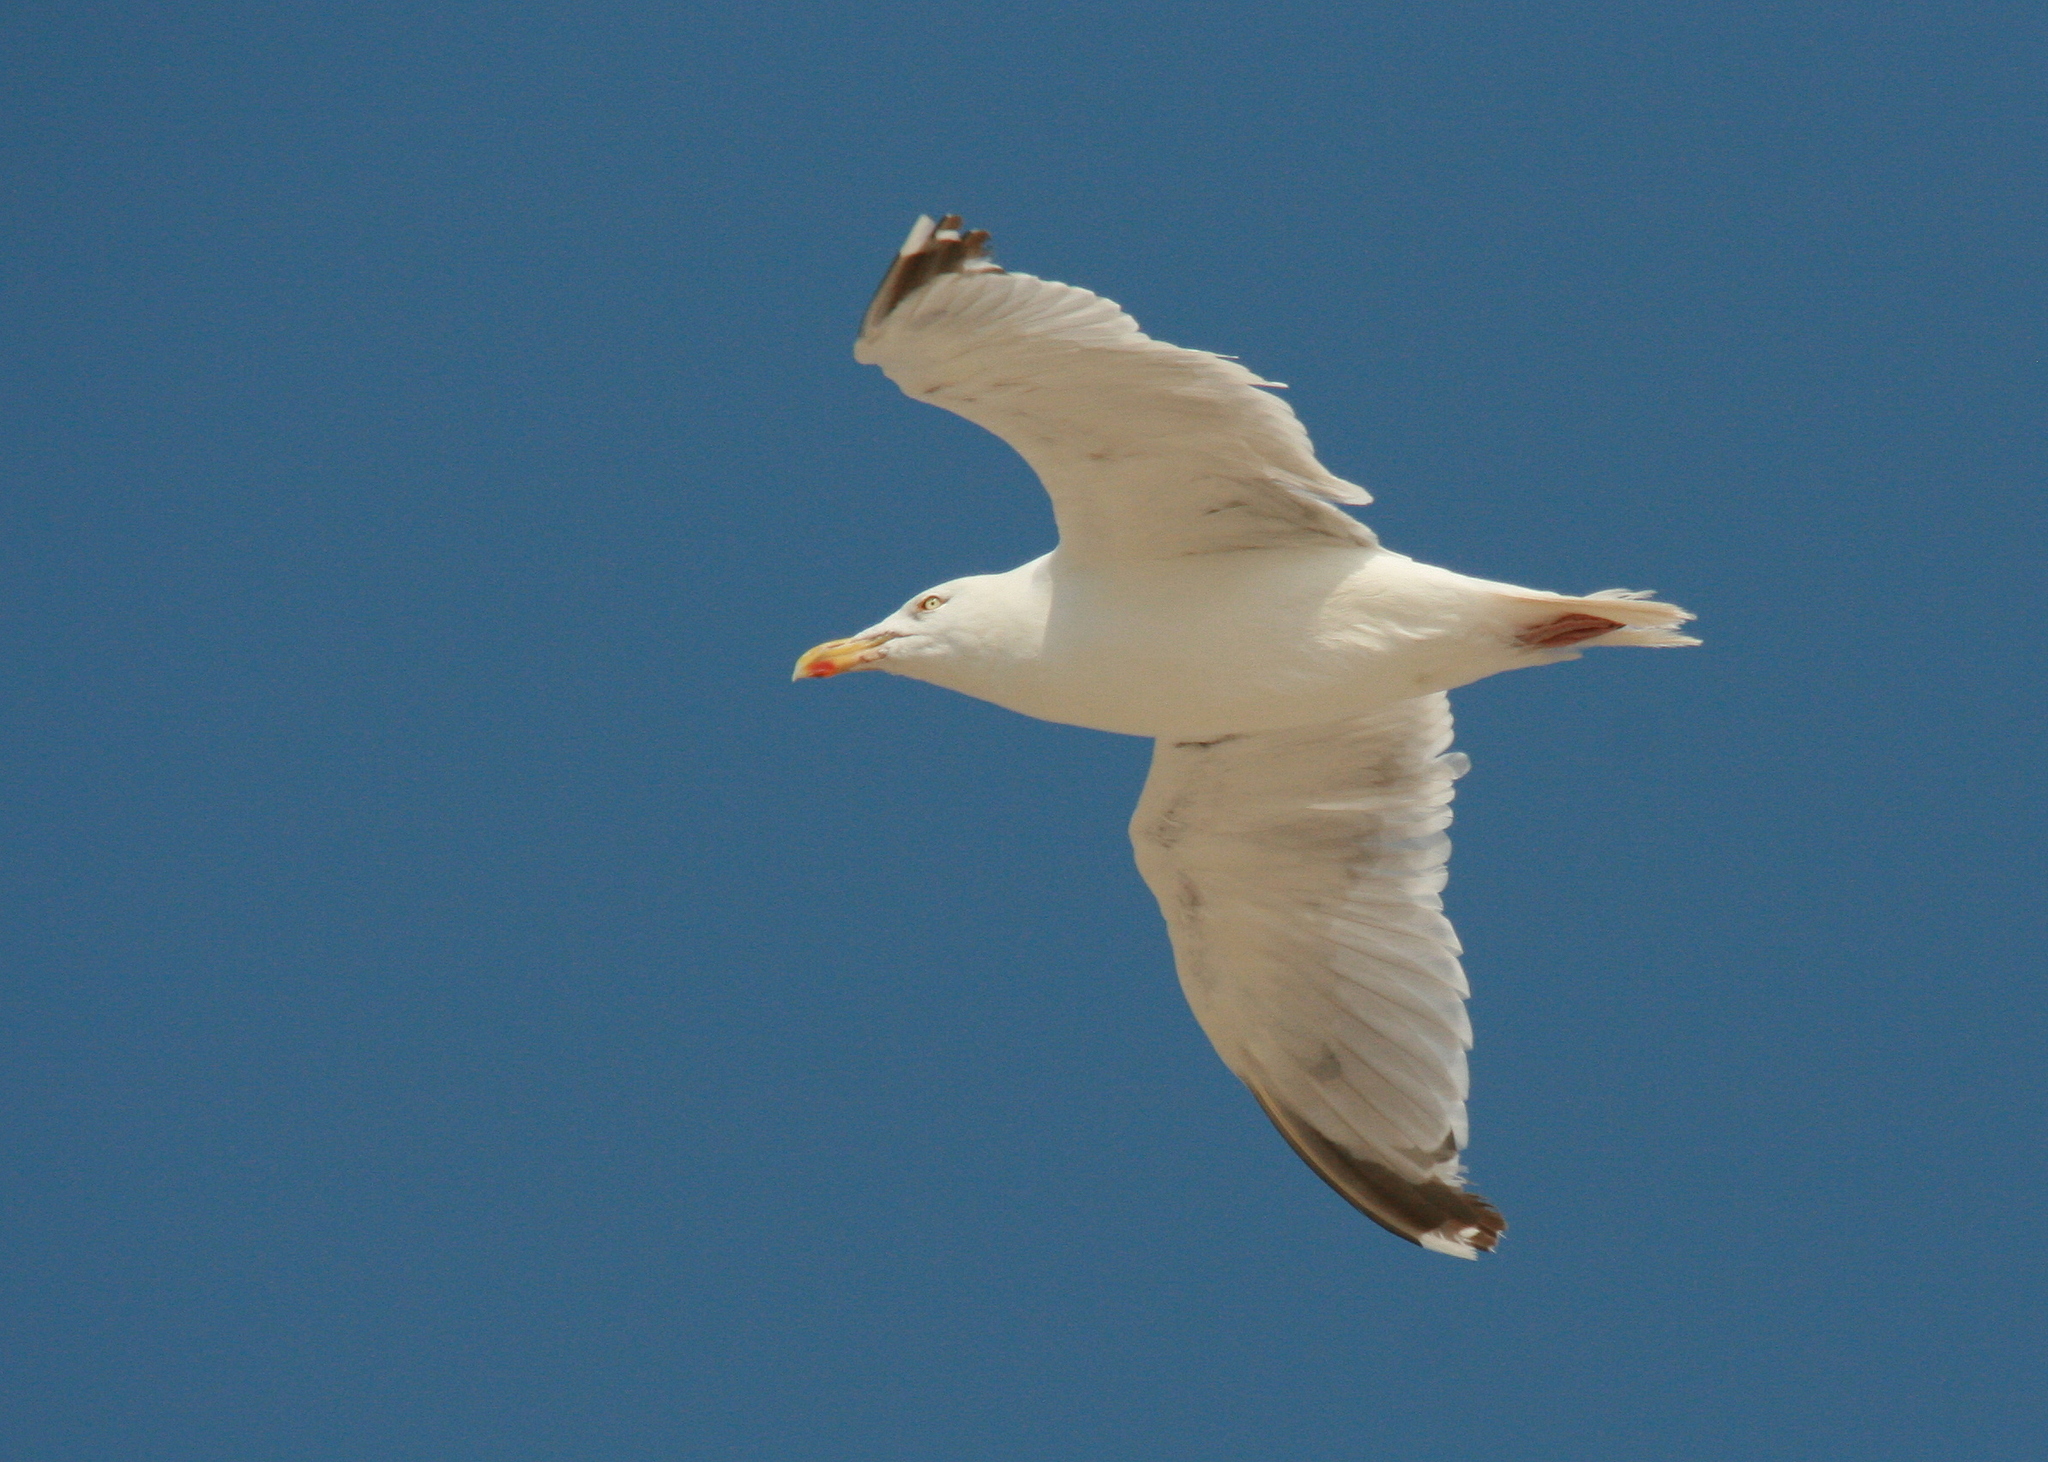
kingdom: Animalia
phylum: Chordata
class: Aves
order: Charadriiformes
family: Laridae
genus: Larus
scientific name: Larus argentatus
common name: Herring gull
